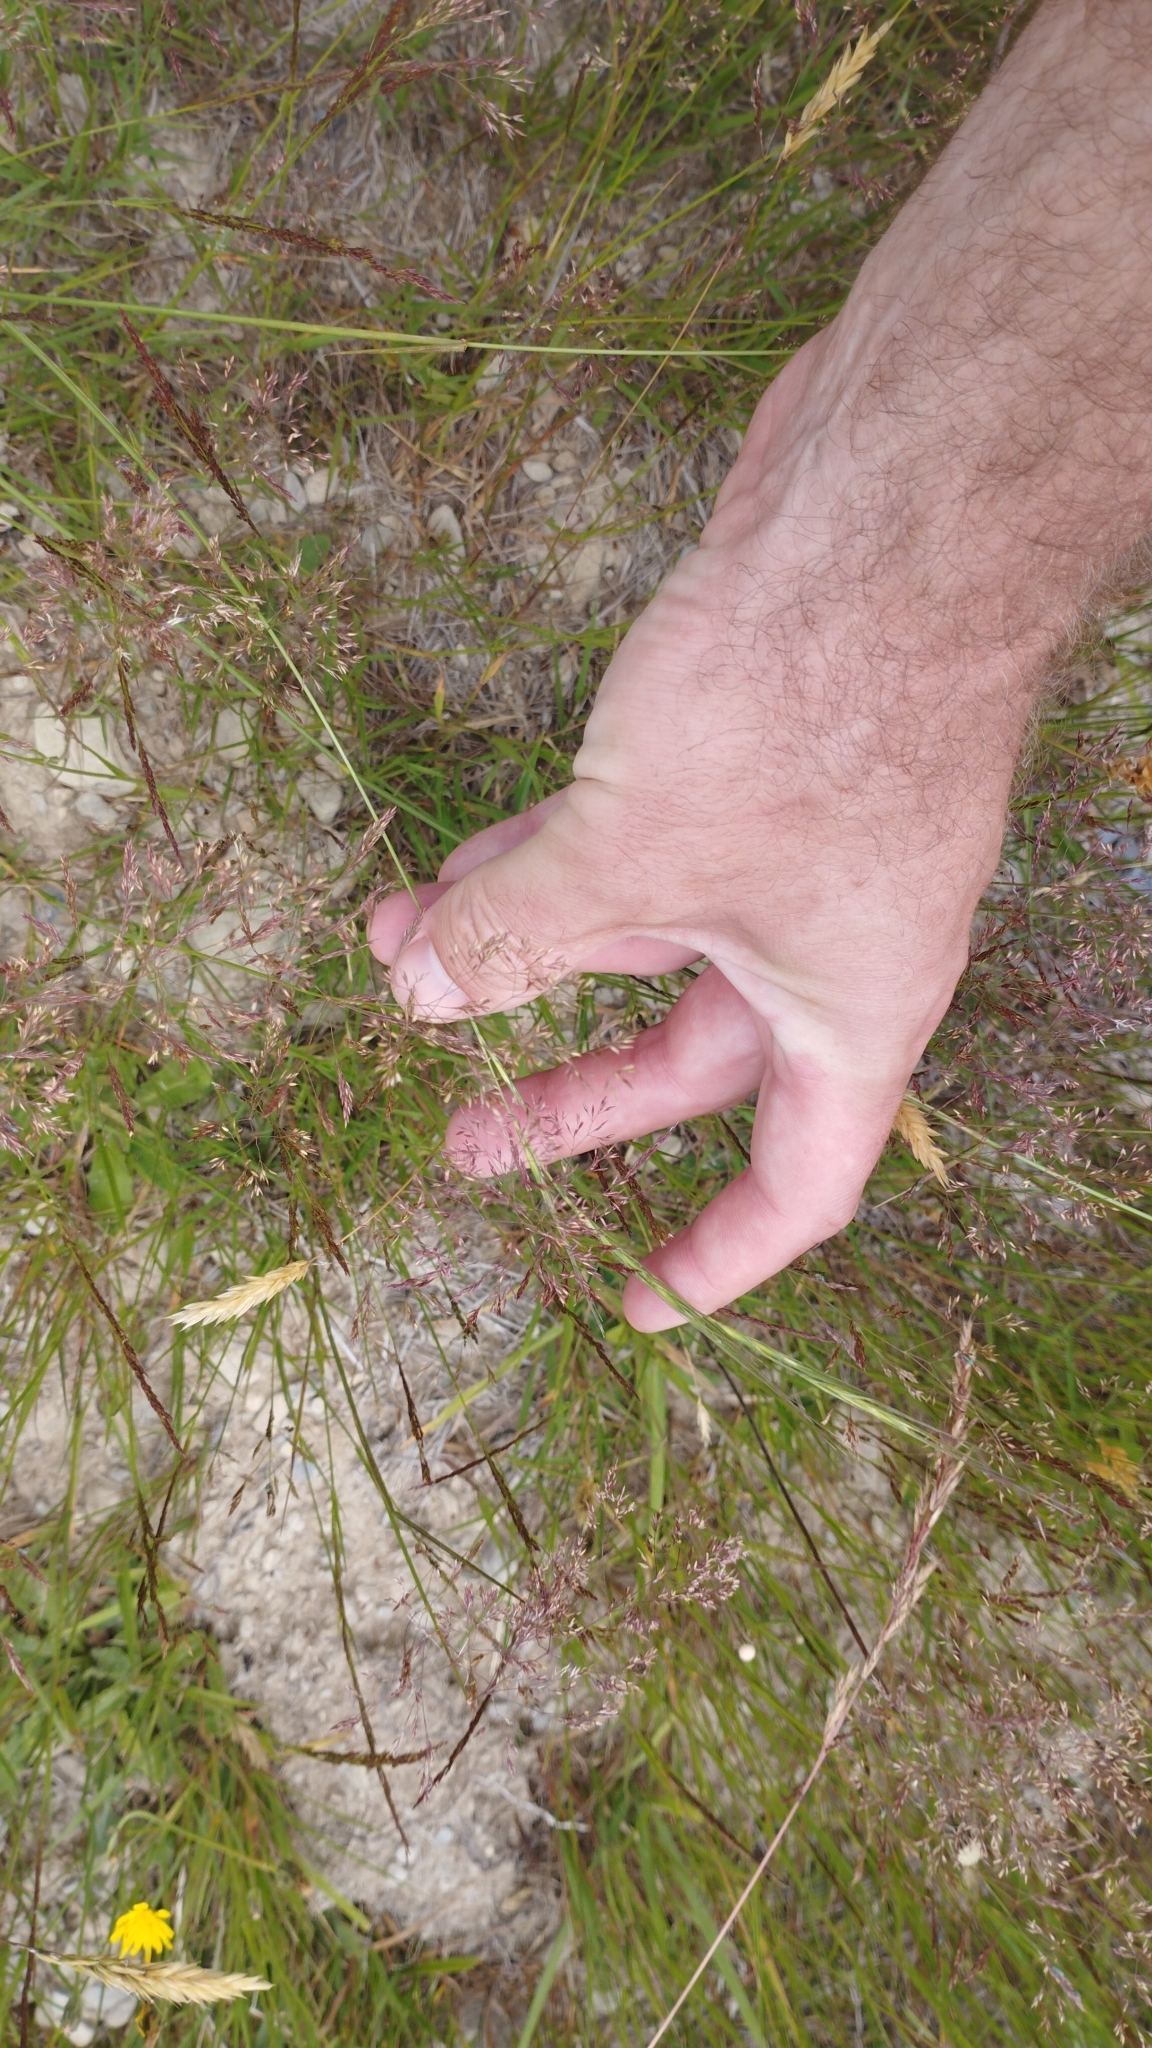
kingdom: Plantae
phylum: Tracheophyta
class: Liliopsida
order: Poales
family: Poaceae
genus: Microlaena
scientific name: Microlaena stipoides
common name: Meadow ricegrass
